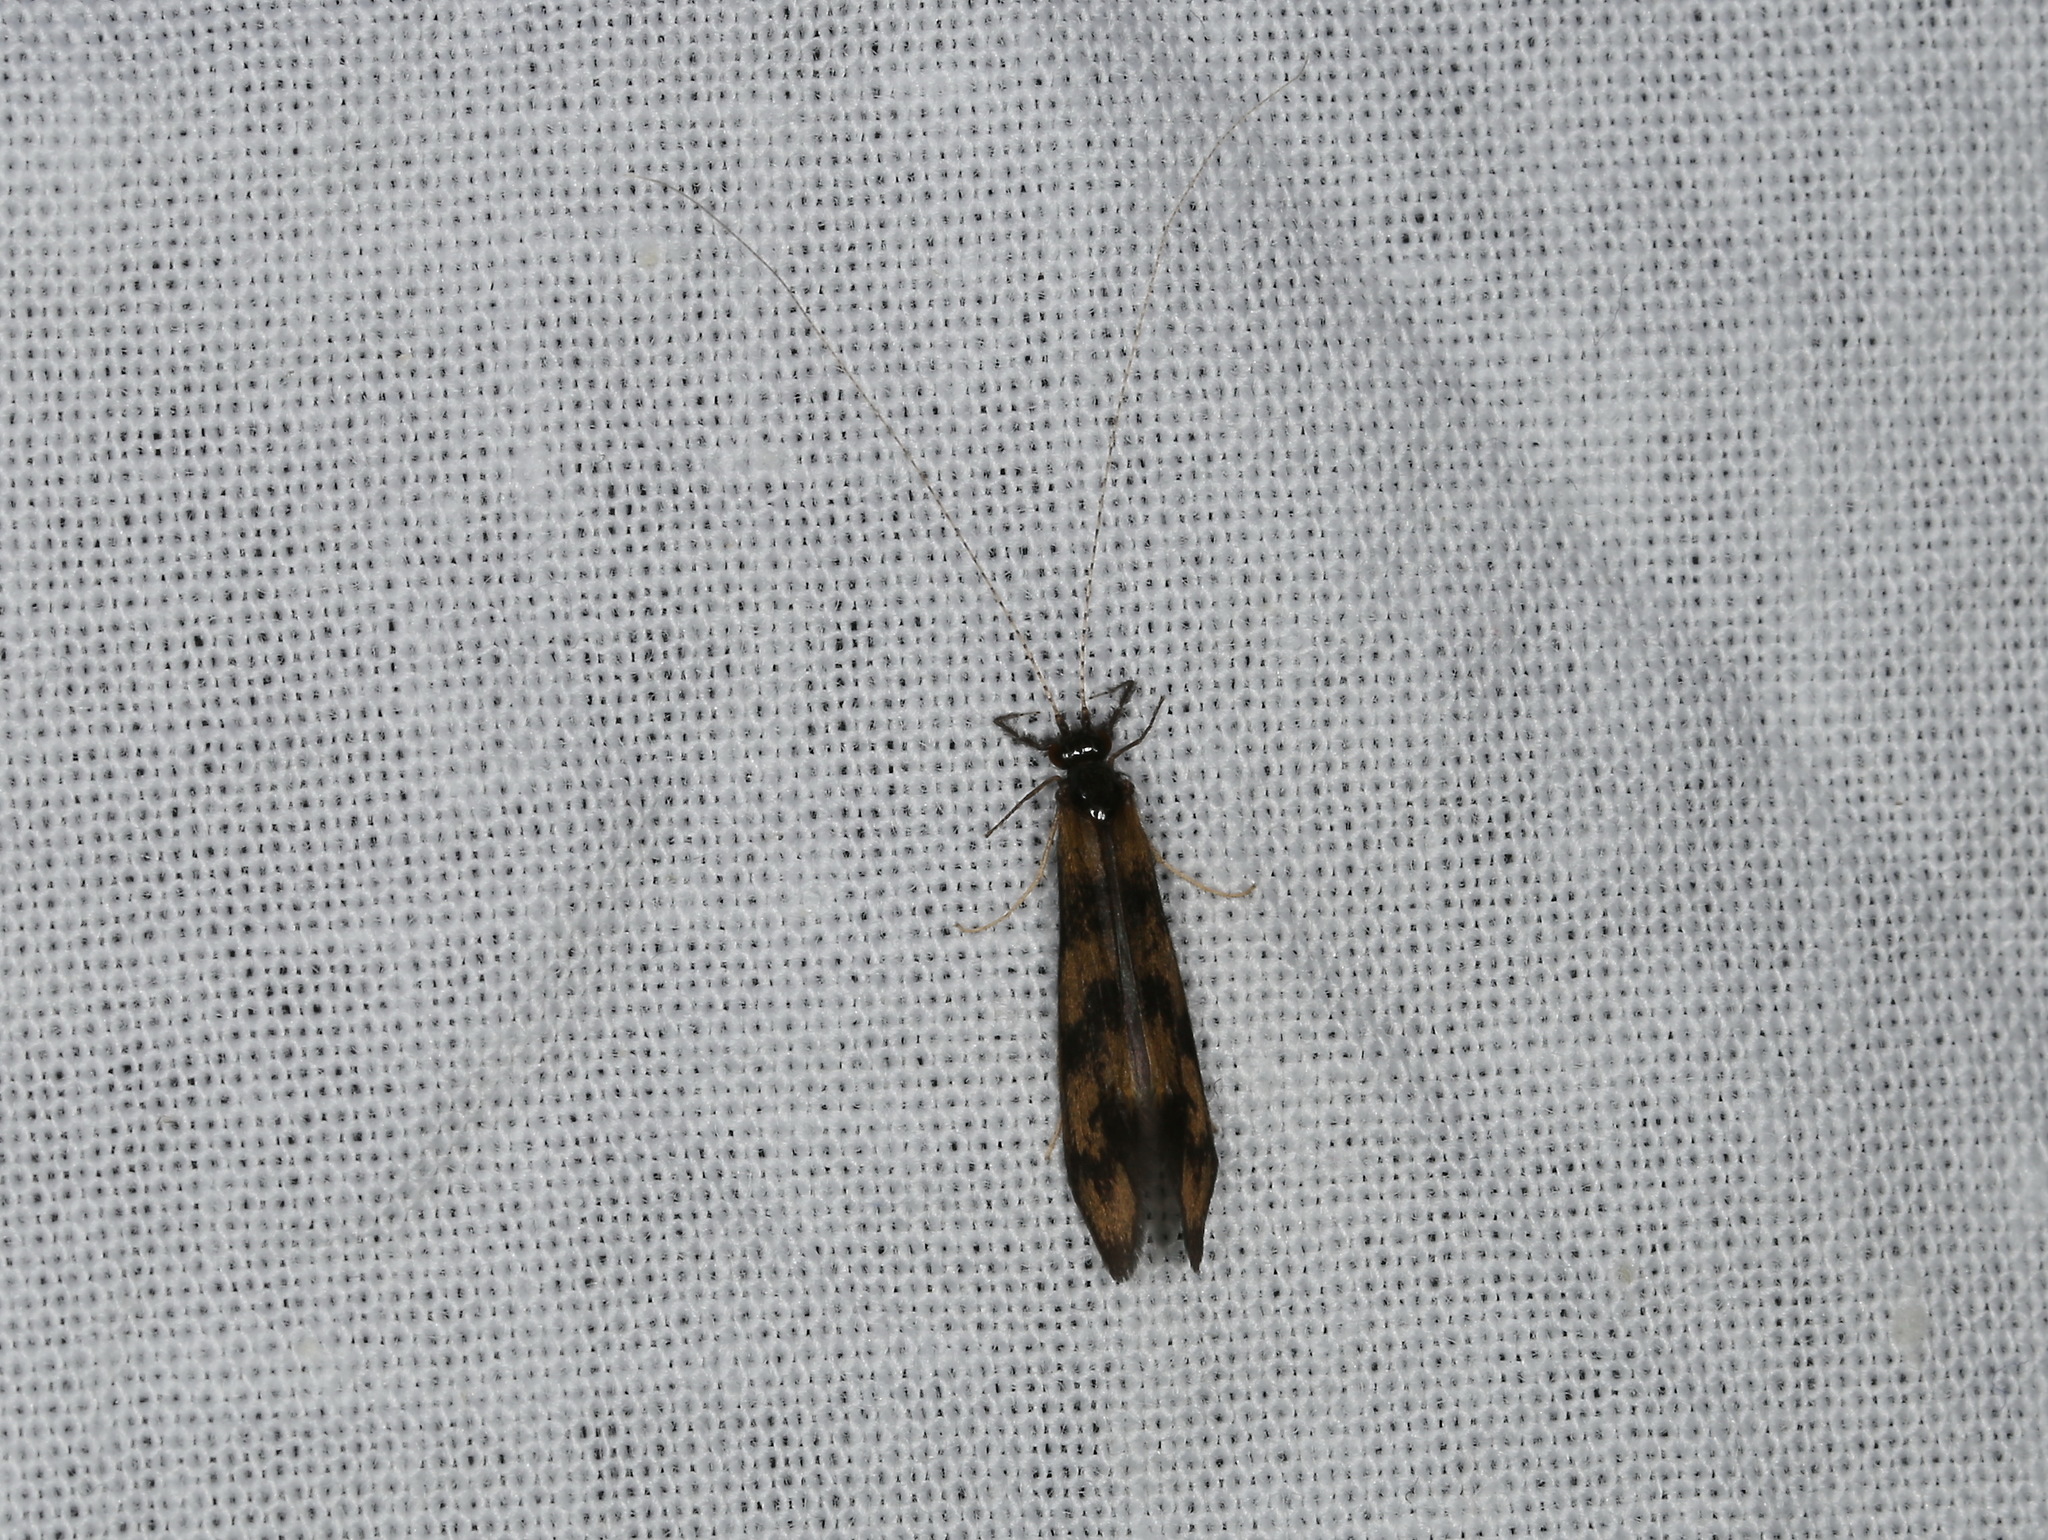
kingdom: Animalia
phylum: Arthropoda
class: Insecta
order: Trichoptera
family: Leptoceridae
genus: Mystacides
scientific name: Mystacides longicornis
